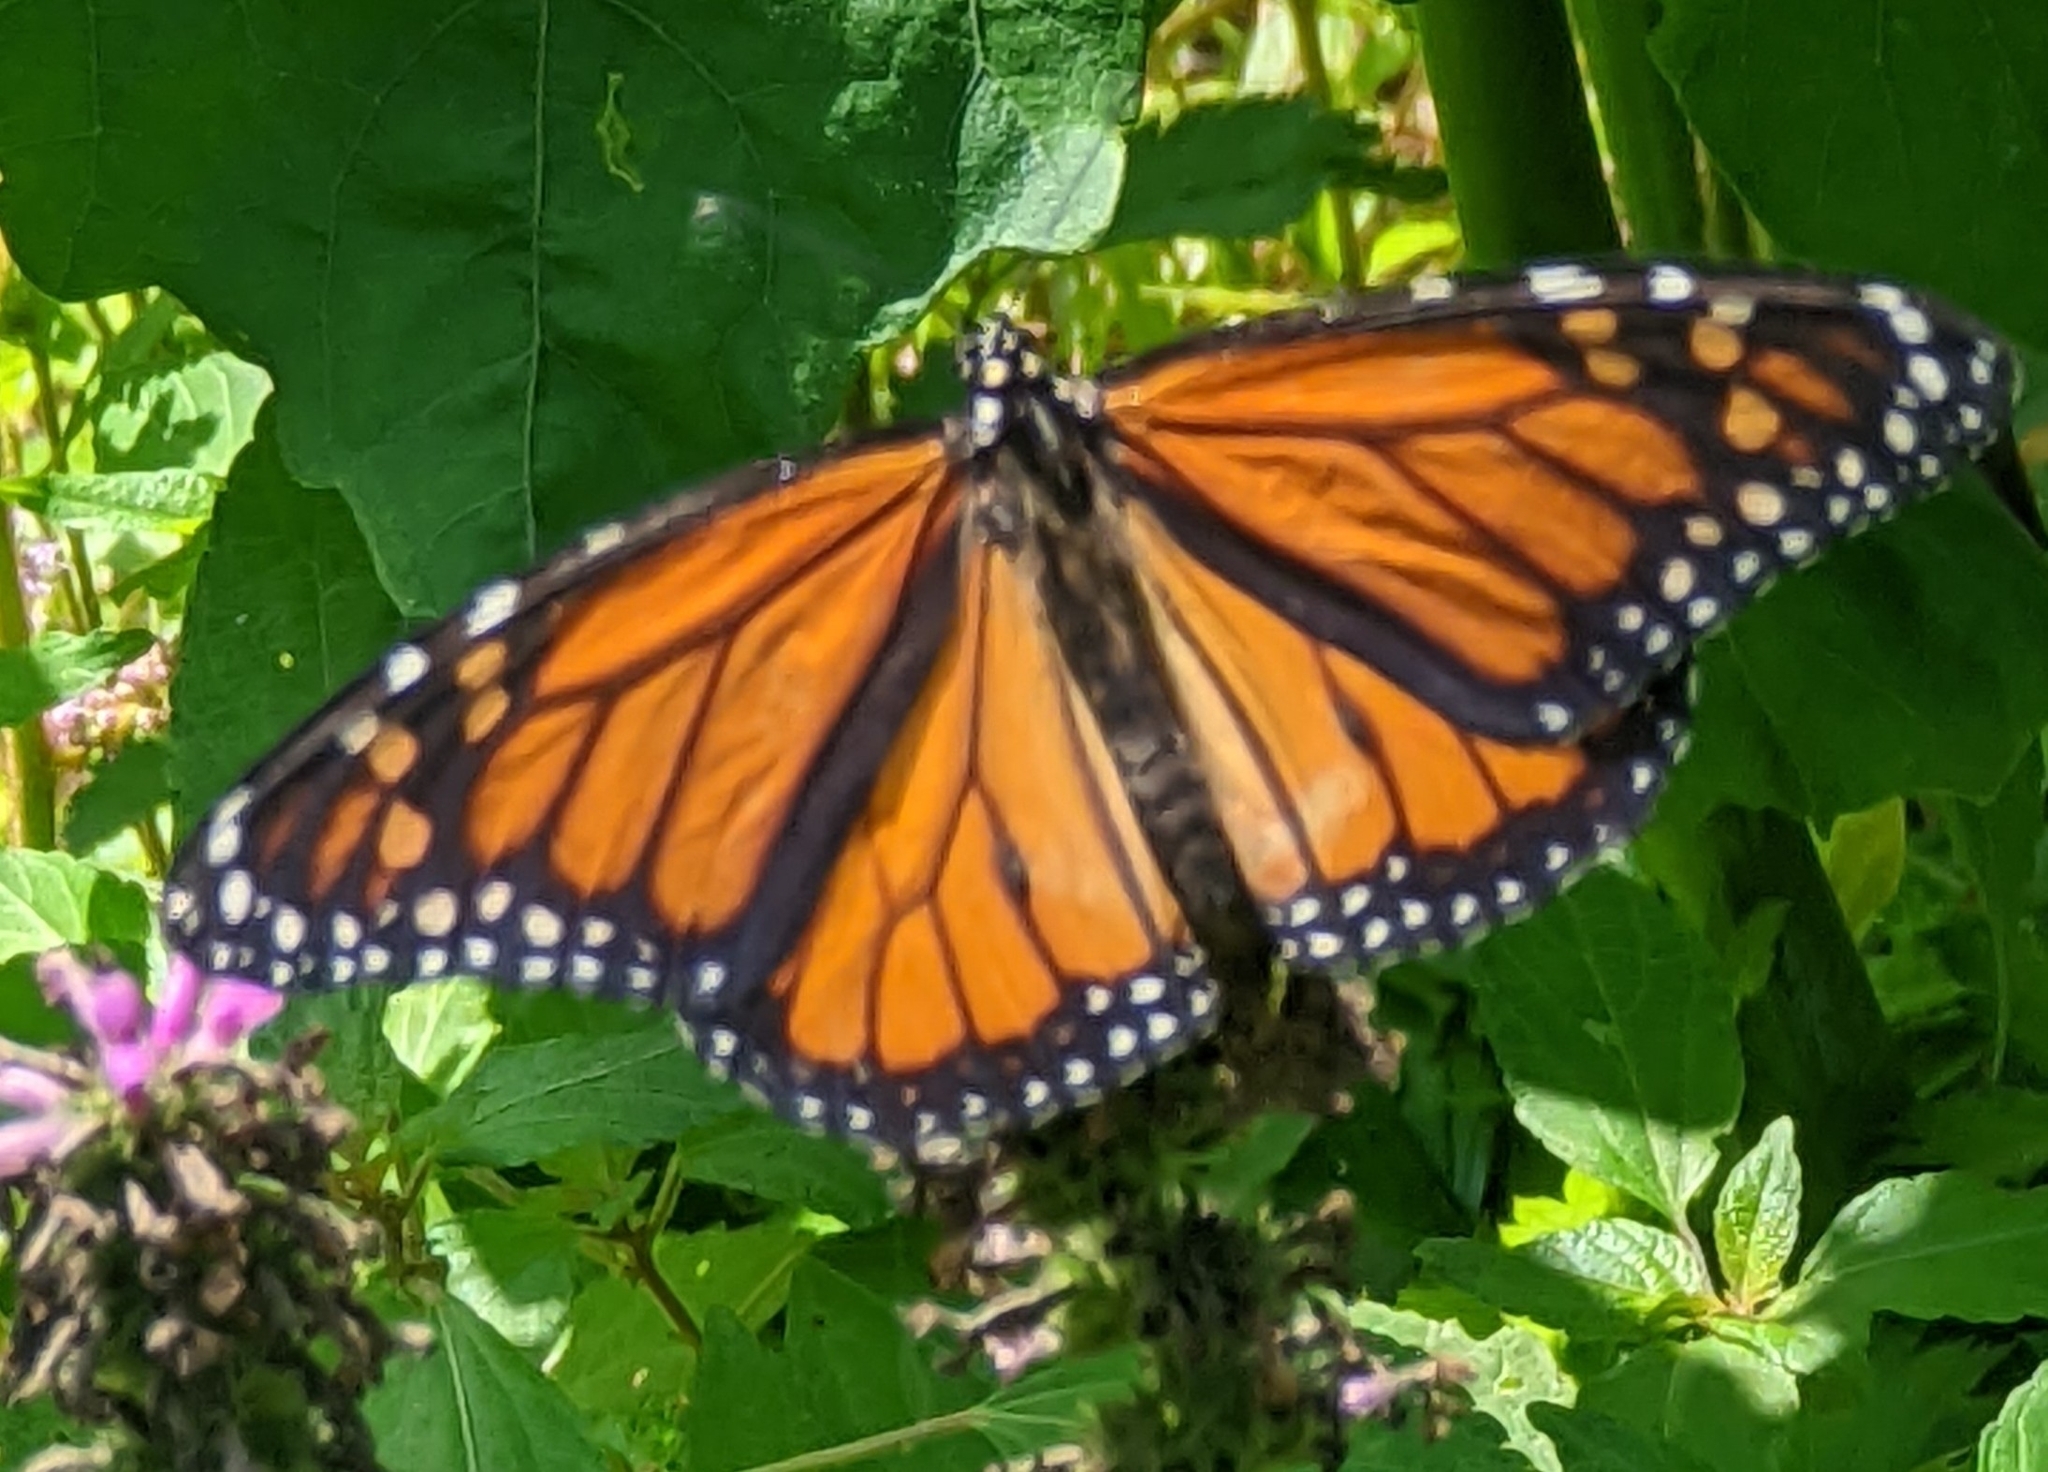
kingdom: Animalia
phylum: Arthropoda
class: Insecta
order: Lepidoptera
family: Nymphalidae
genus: Danaus
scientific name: Danaus plexippus
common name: Monarch
